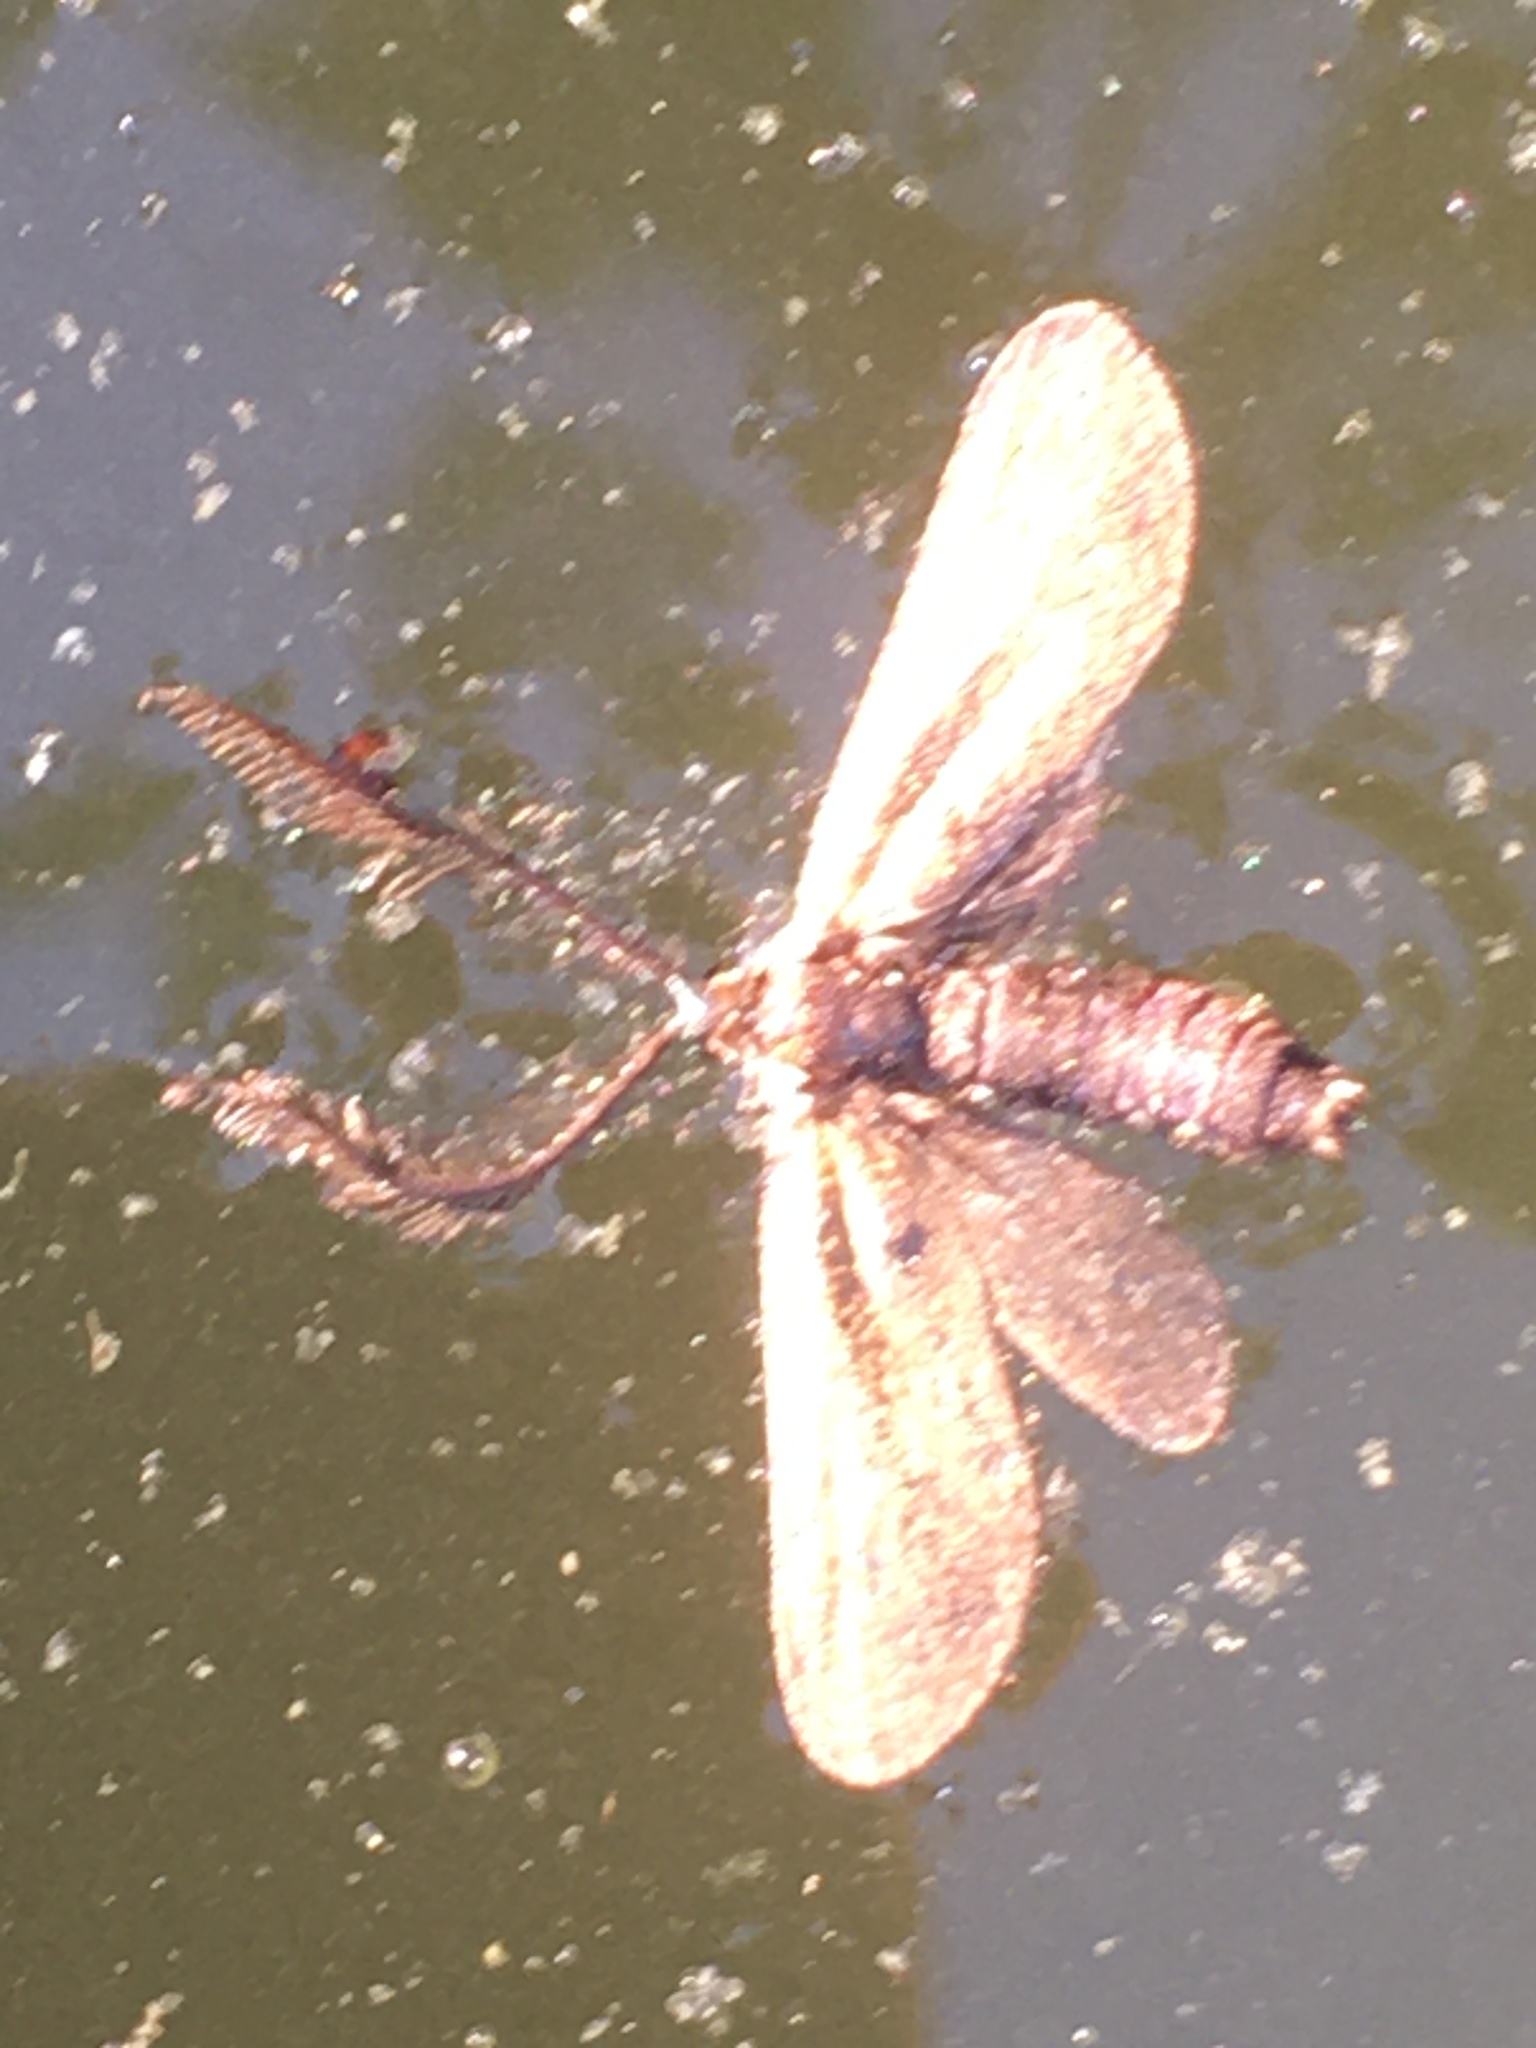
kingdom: Animalia
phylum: Arthropoda
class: Insecta
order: Lepidoptera
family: Zygaenidae
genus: Theresimima
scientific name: Theresimima ampellophaga
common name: Vine bud moth
